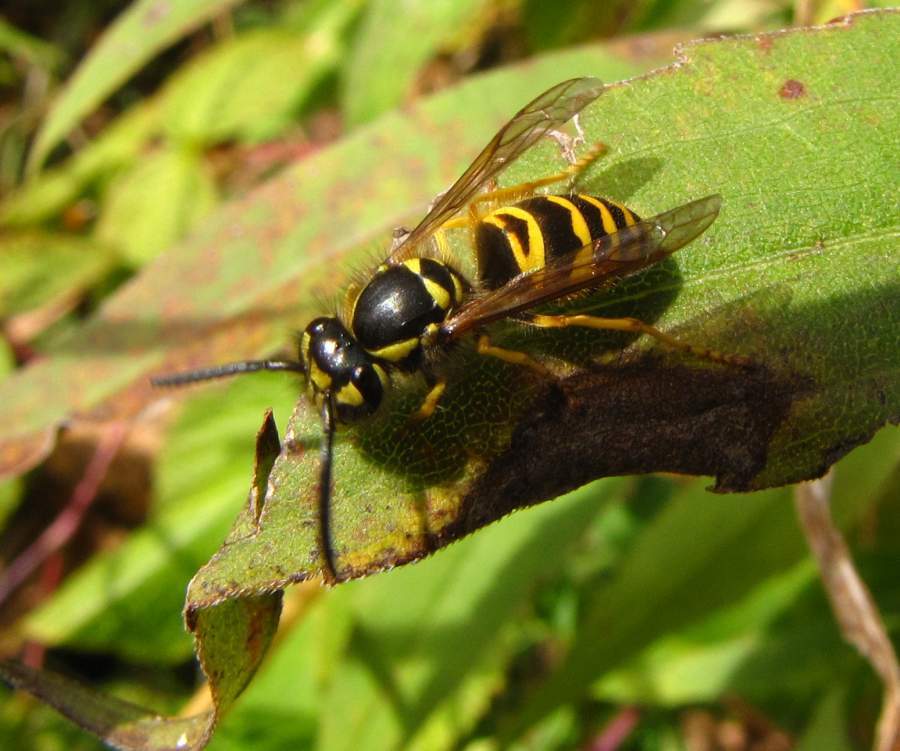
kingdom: Animalia
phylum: Arthropoda
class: Insecta
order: Hymenoptera
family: Vespidae
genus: Vespula
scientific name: Vespula maculifrons
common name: Eastern yellowjacket
